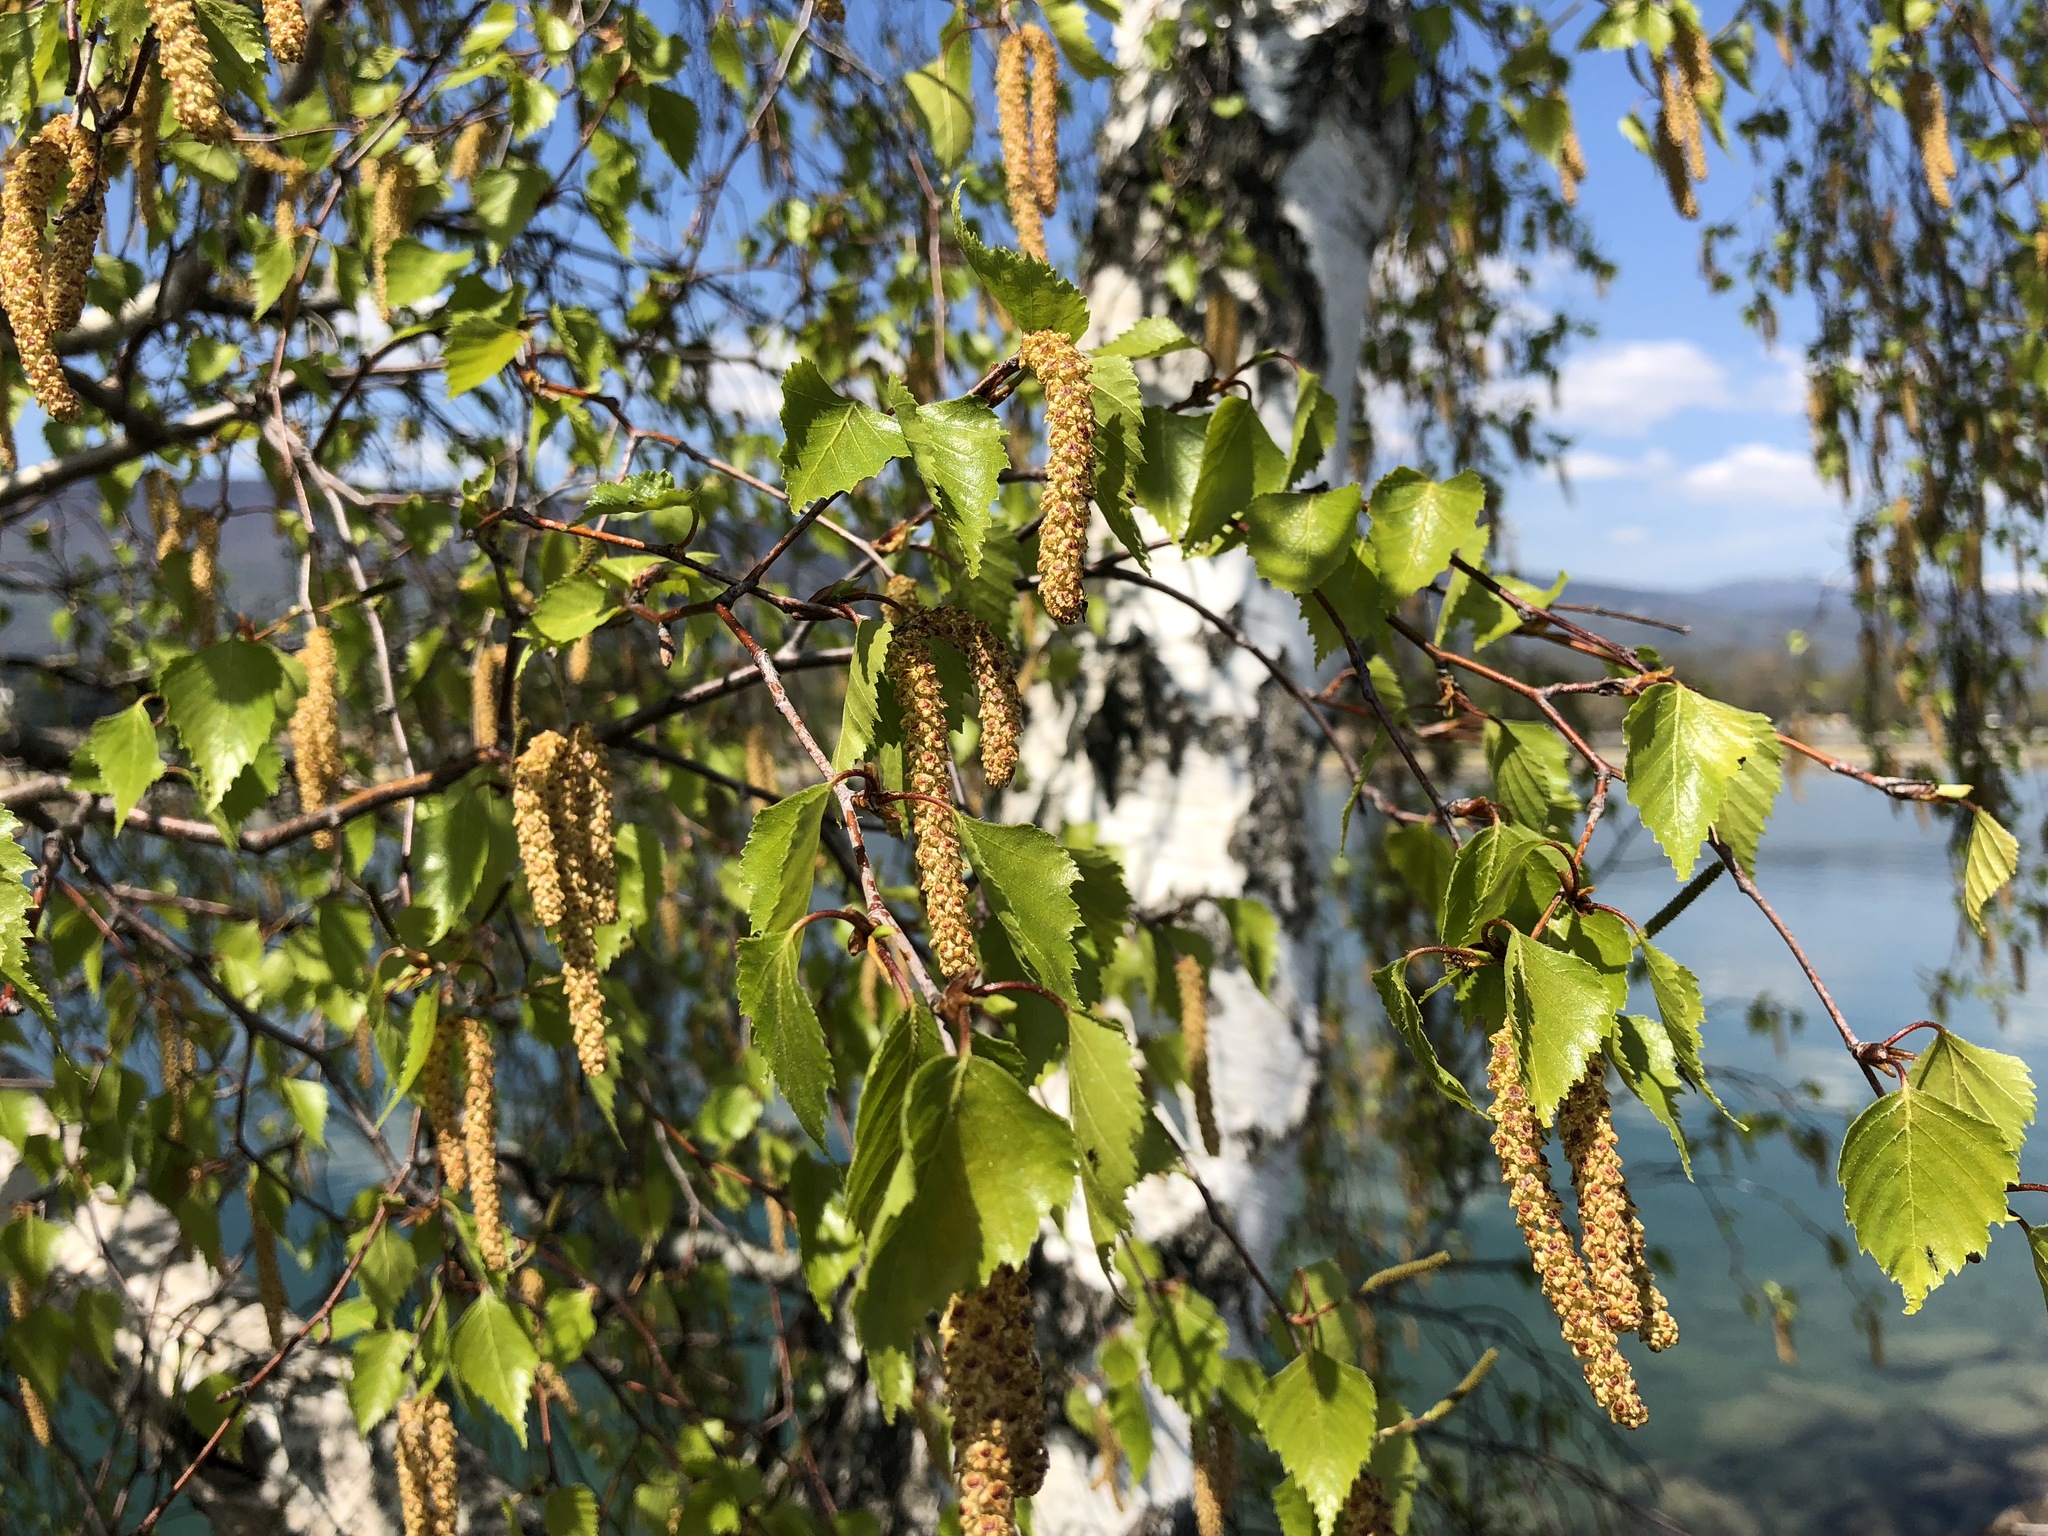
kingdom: Plantae
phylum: Tracheophyta
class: Magnoliopsida
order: Fagales
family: Betulaceae
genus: Betula
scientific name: Betula pendula
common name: Silver birch
